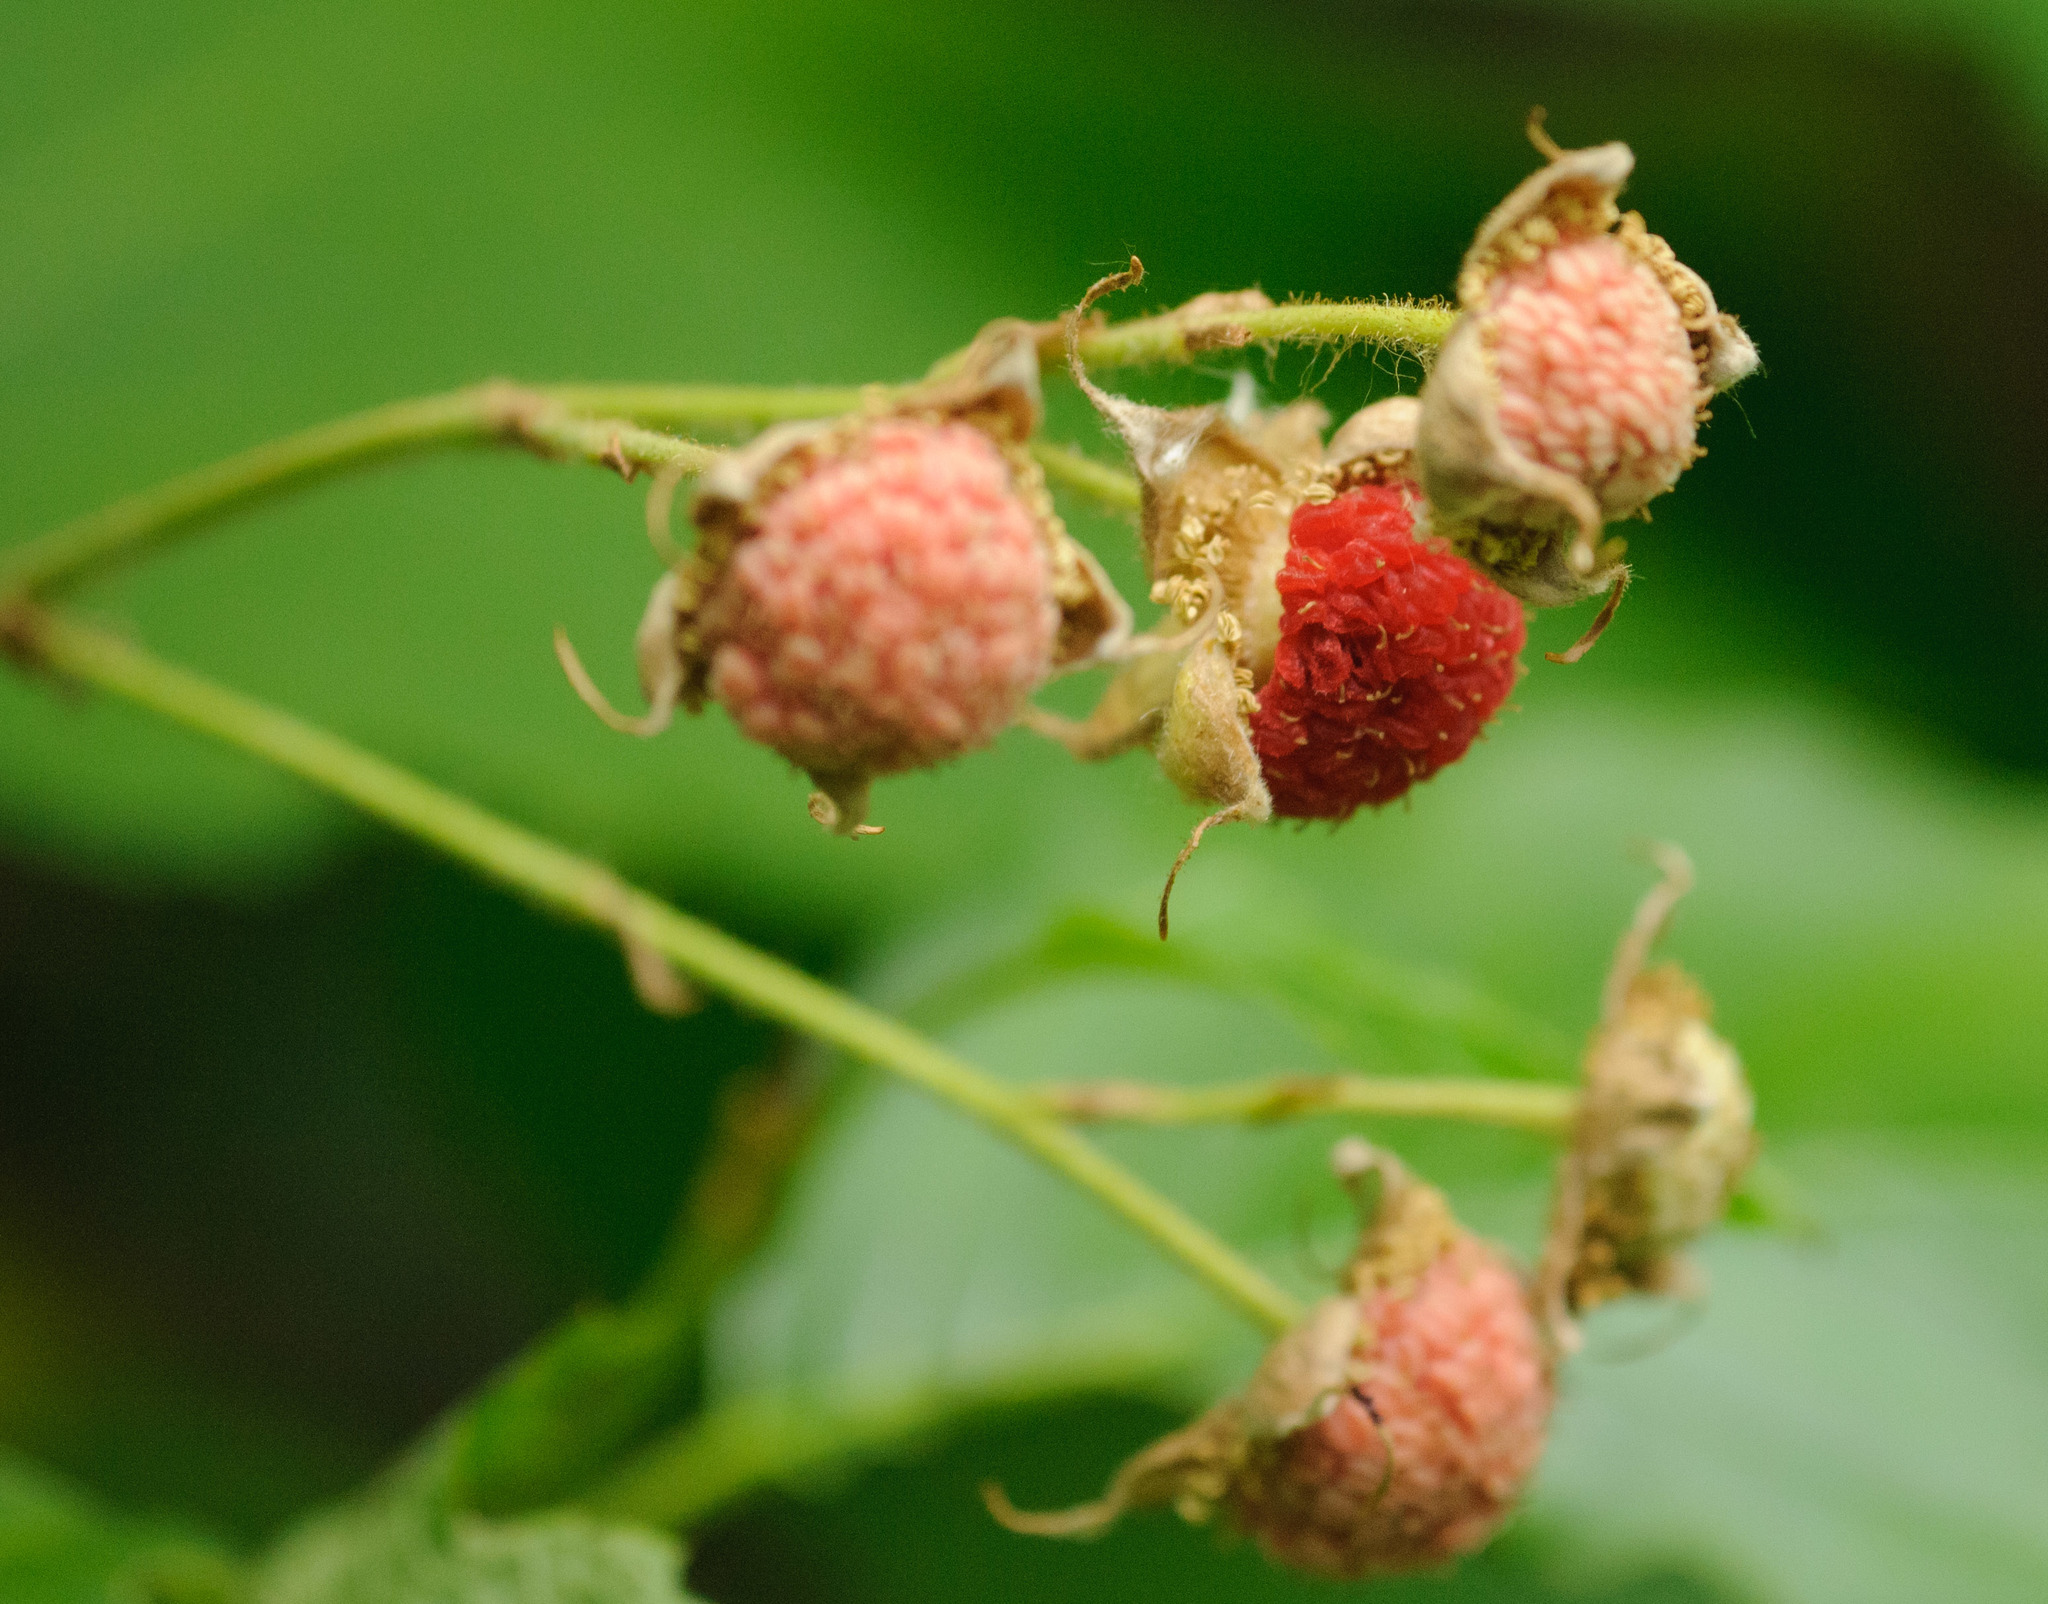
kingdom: Plantae
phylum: Tracheophyta
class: Magnoliopsida
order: Rosales
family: Rosaceae
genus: Rubus
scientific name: Rubus parviflorus
